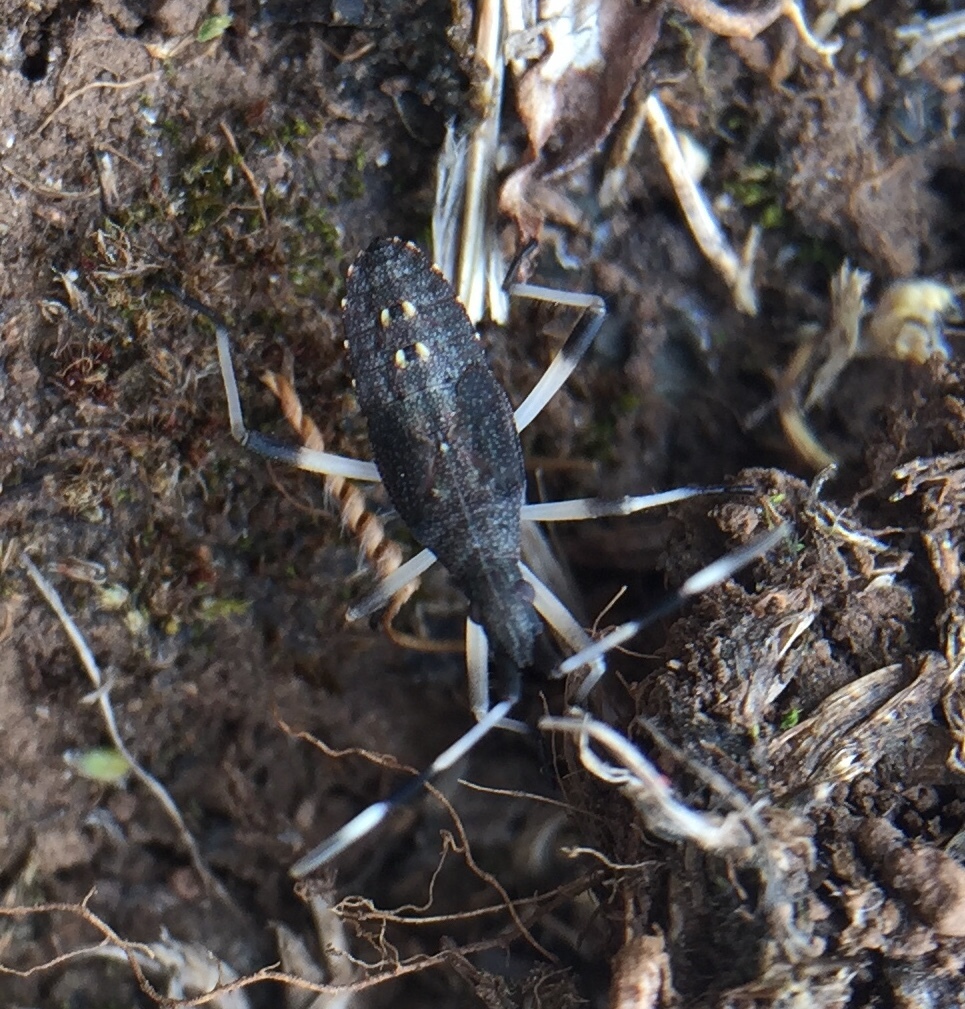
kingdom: Animalia
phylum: Arthropoda
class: Insecta
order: Hemiptera
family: Stenocephalidae
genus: Dicranocephalus
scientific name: Dicranocephalus
